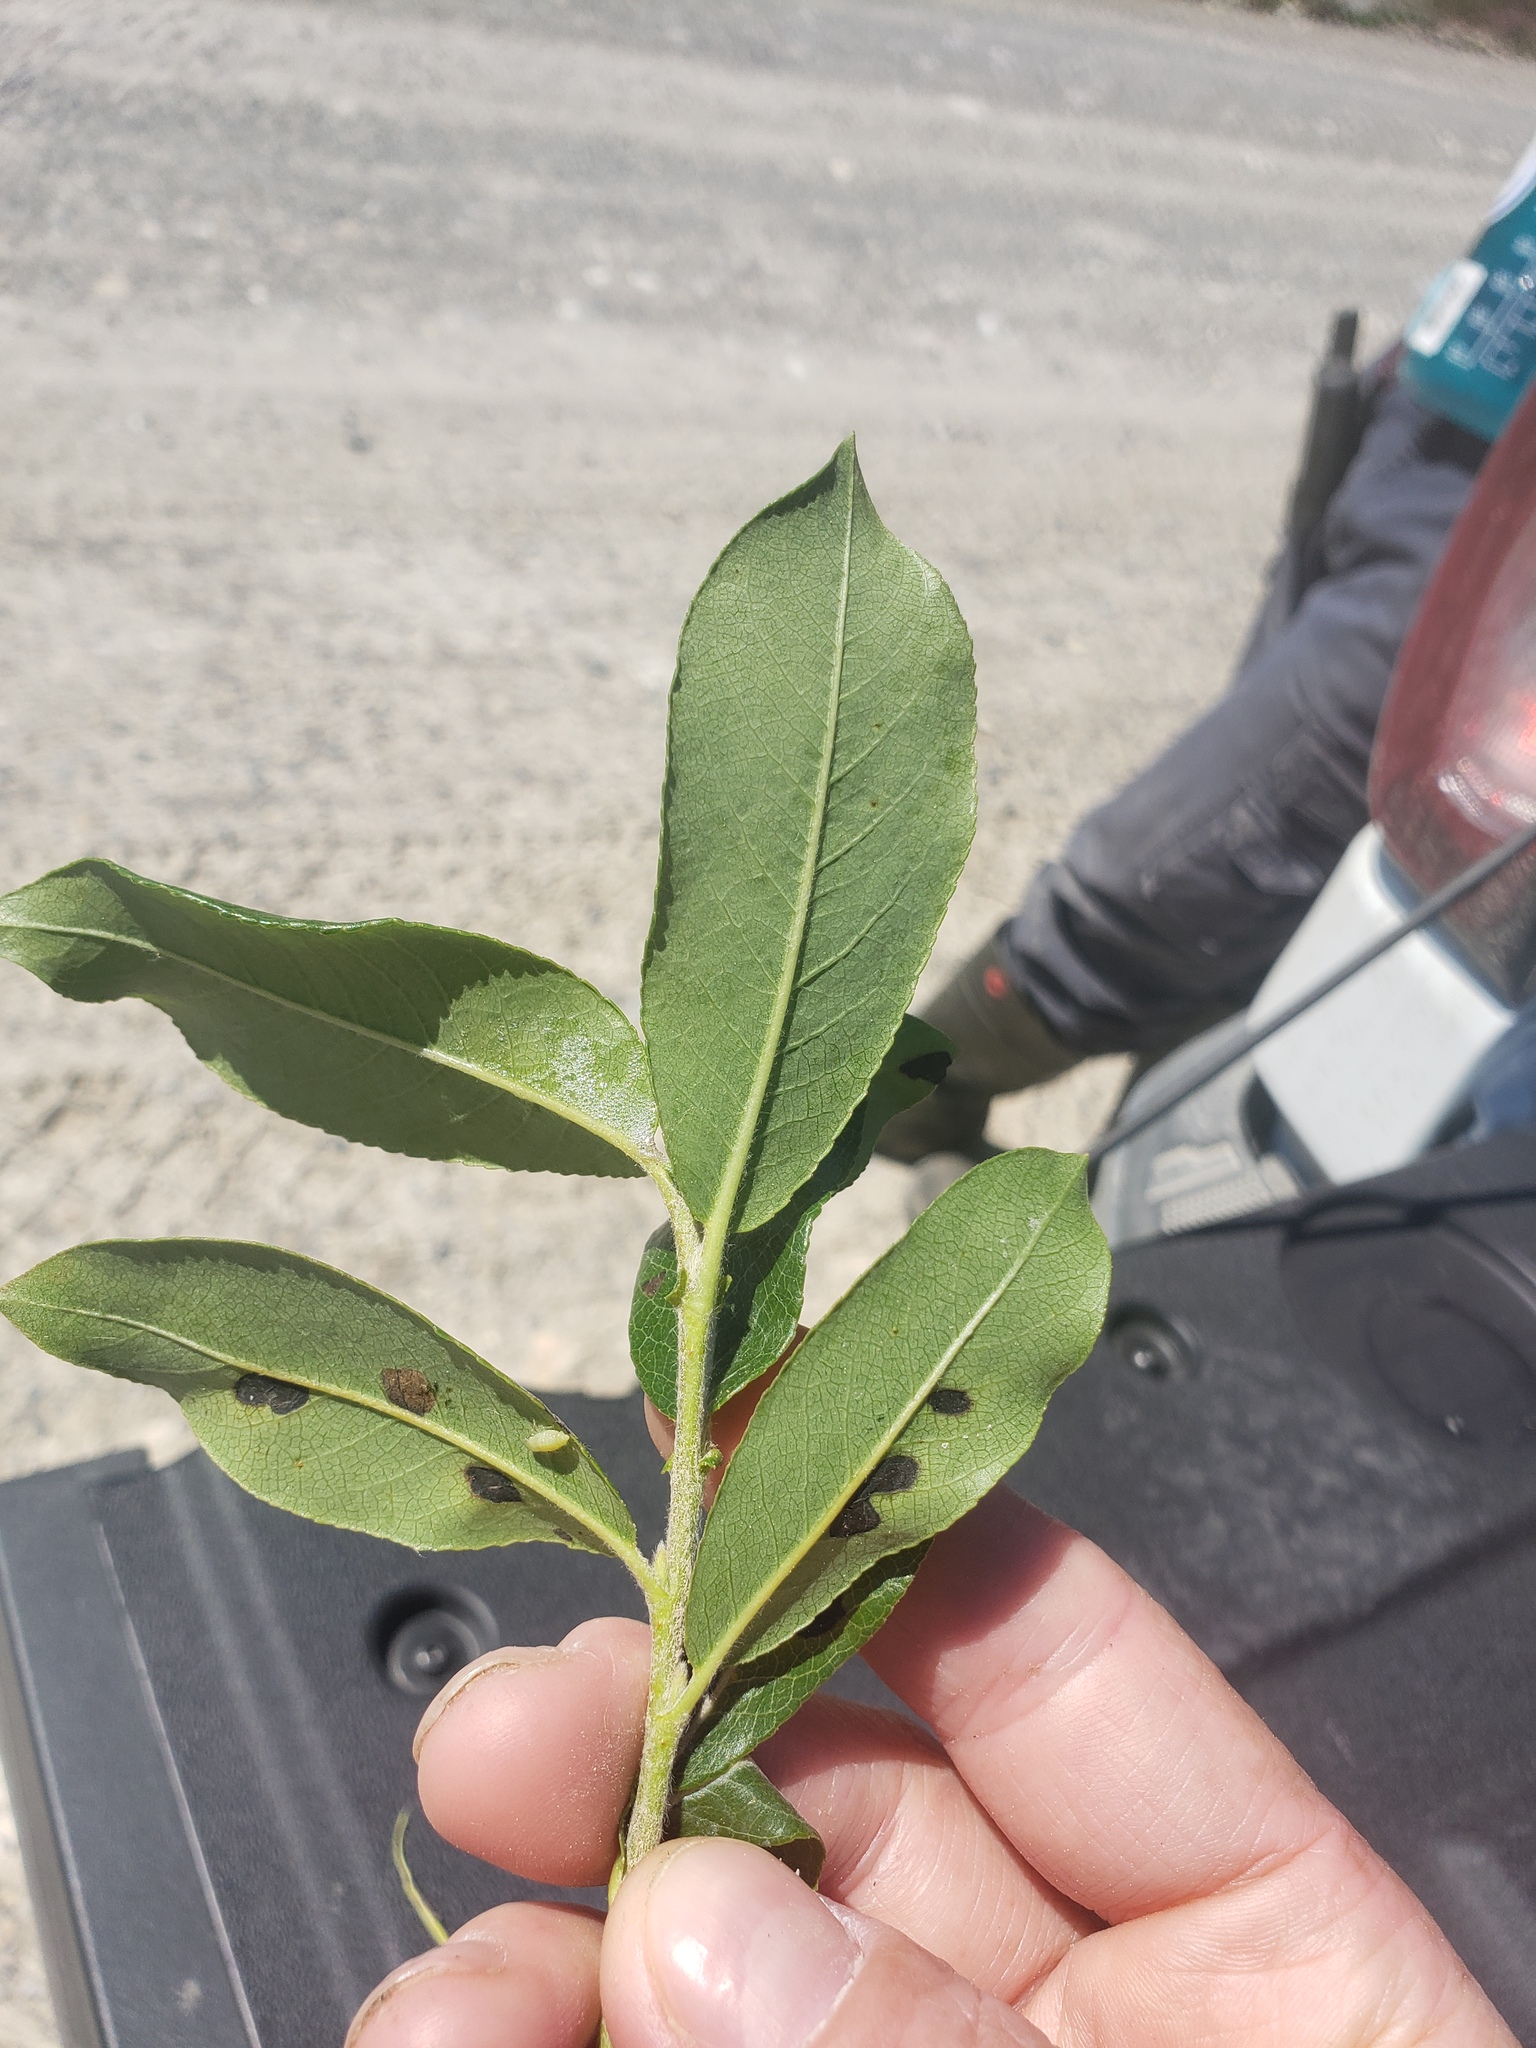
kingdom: Plantae
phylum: Tracheophyta
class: Magnoliopsida
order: Malpighiales
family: Salicaceae
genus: Salix
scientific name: Salix commutata
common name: Under-green willow
